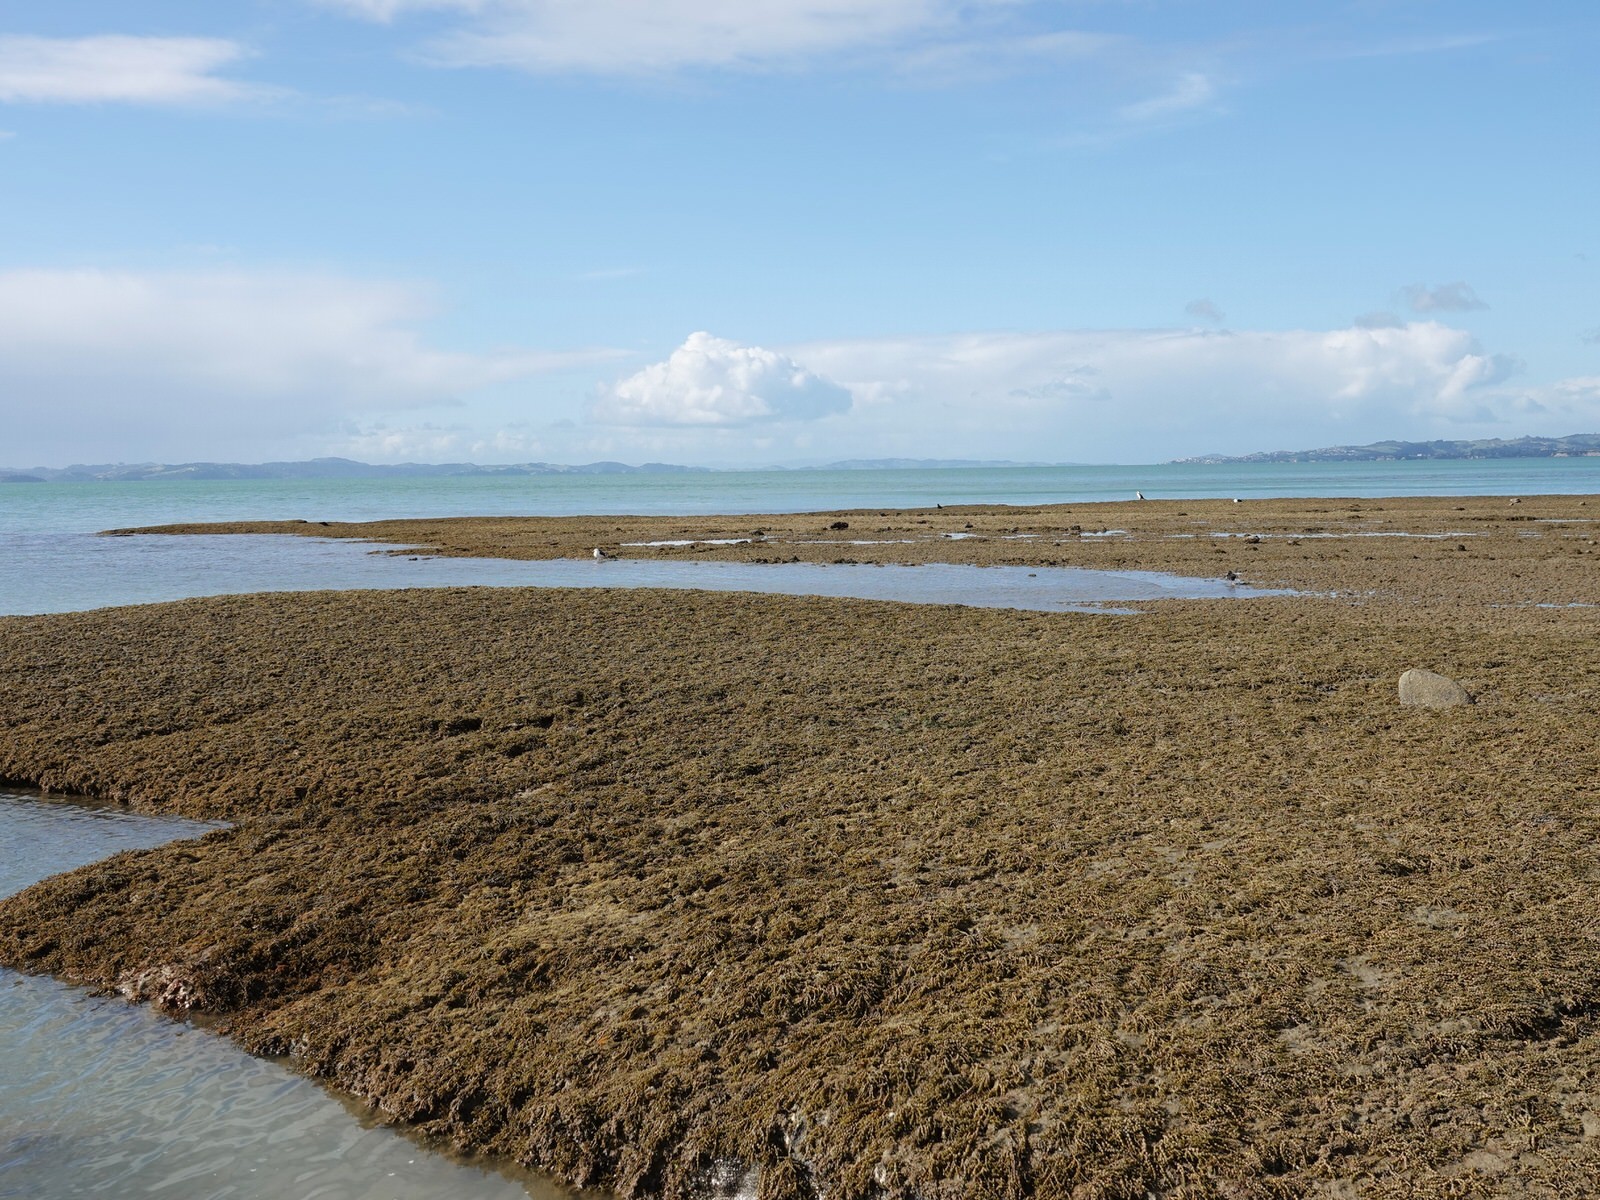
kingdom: Chromista
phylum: Ochrophyta
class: Phaeophyceae
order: Fucales
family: Hormosiraceae
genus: Hormosira
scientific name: Hormosira banksii
